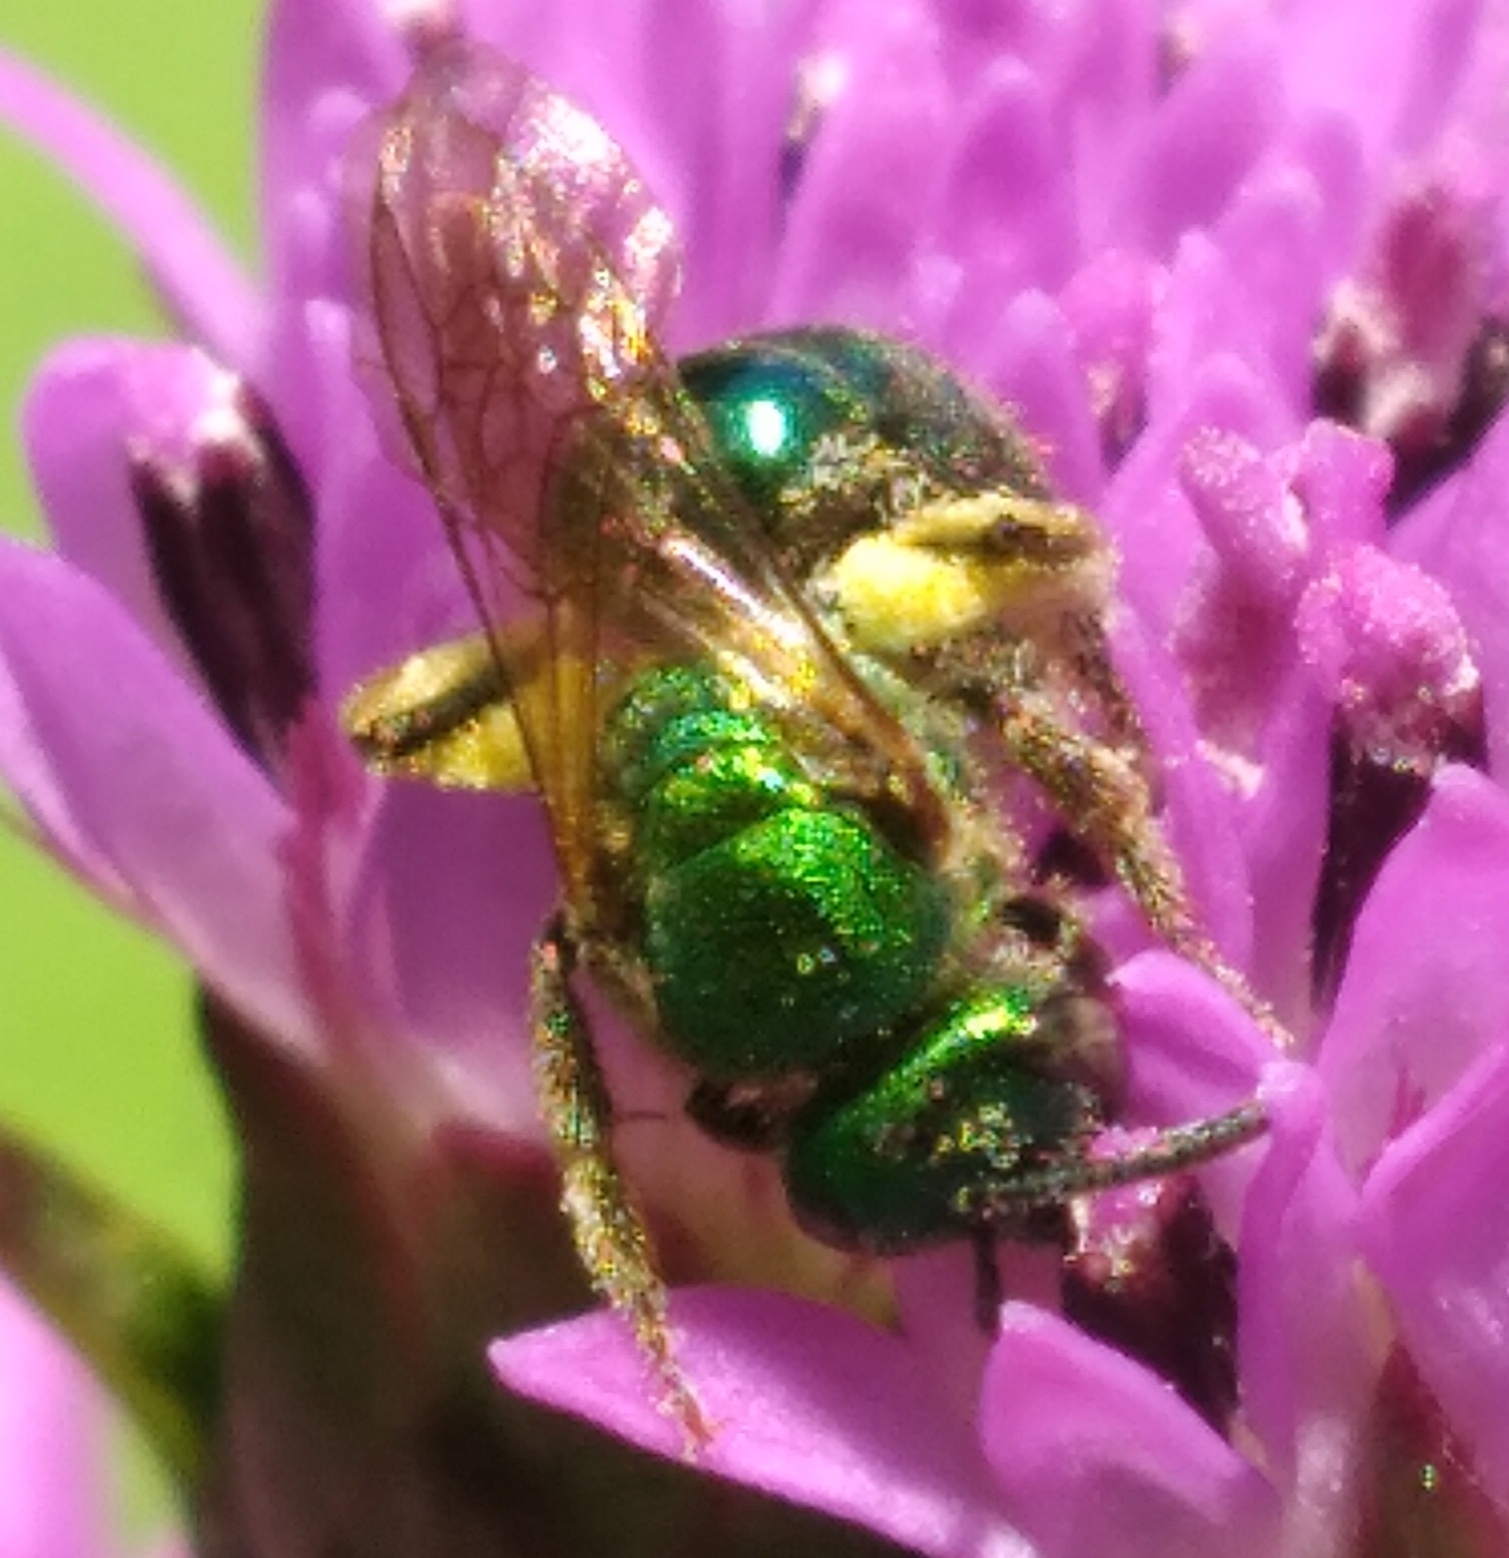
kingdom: Animalia
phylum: Arthropoda
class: Insecta
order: Hymenoptera
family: Halictidae
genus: Augochlorella
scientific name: Augochlorella aurata
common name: Golden sweat bee
